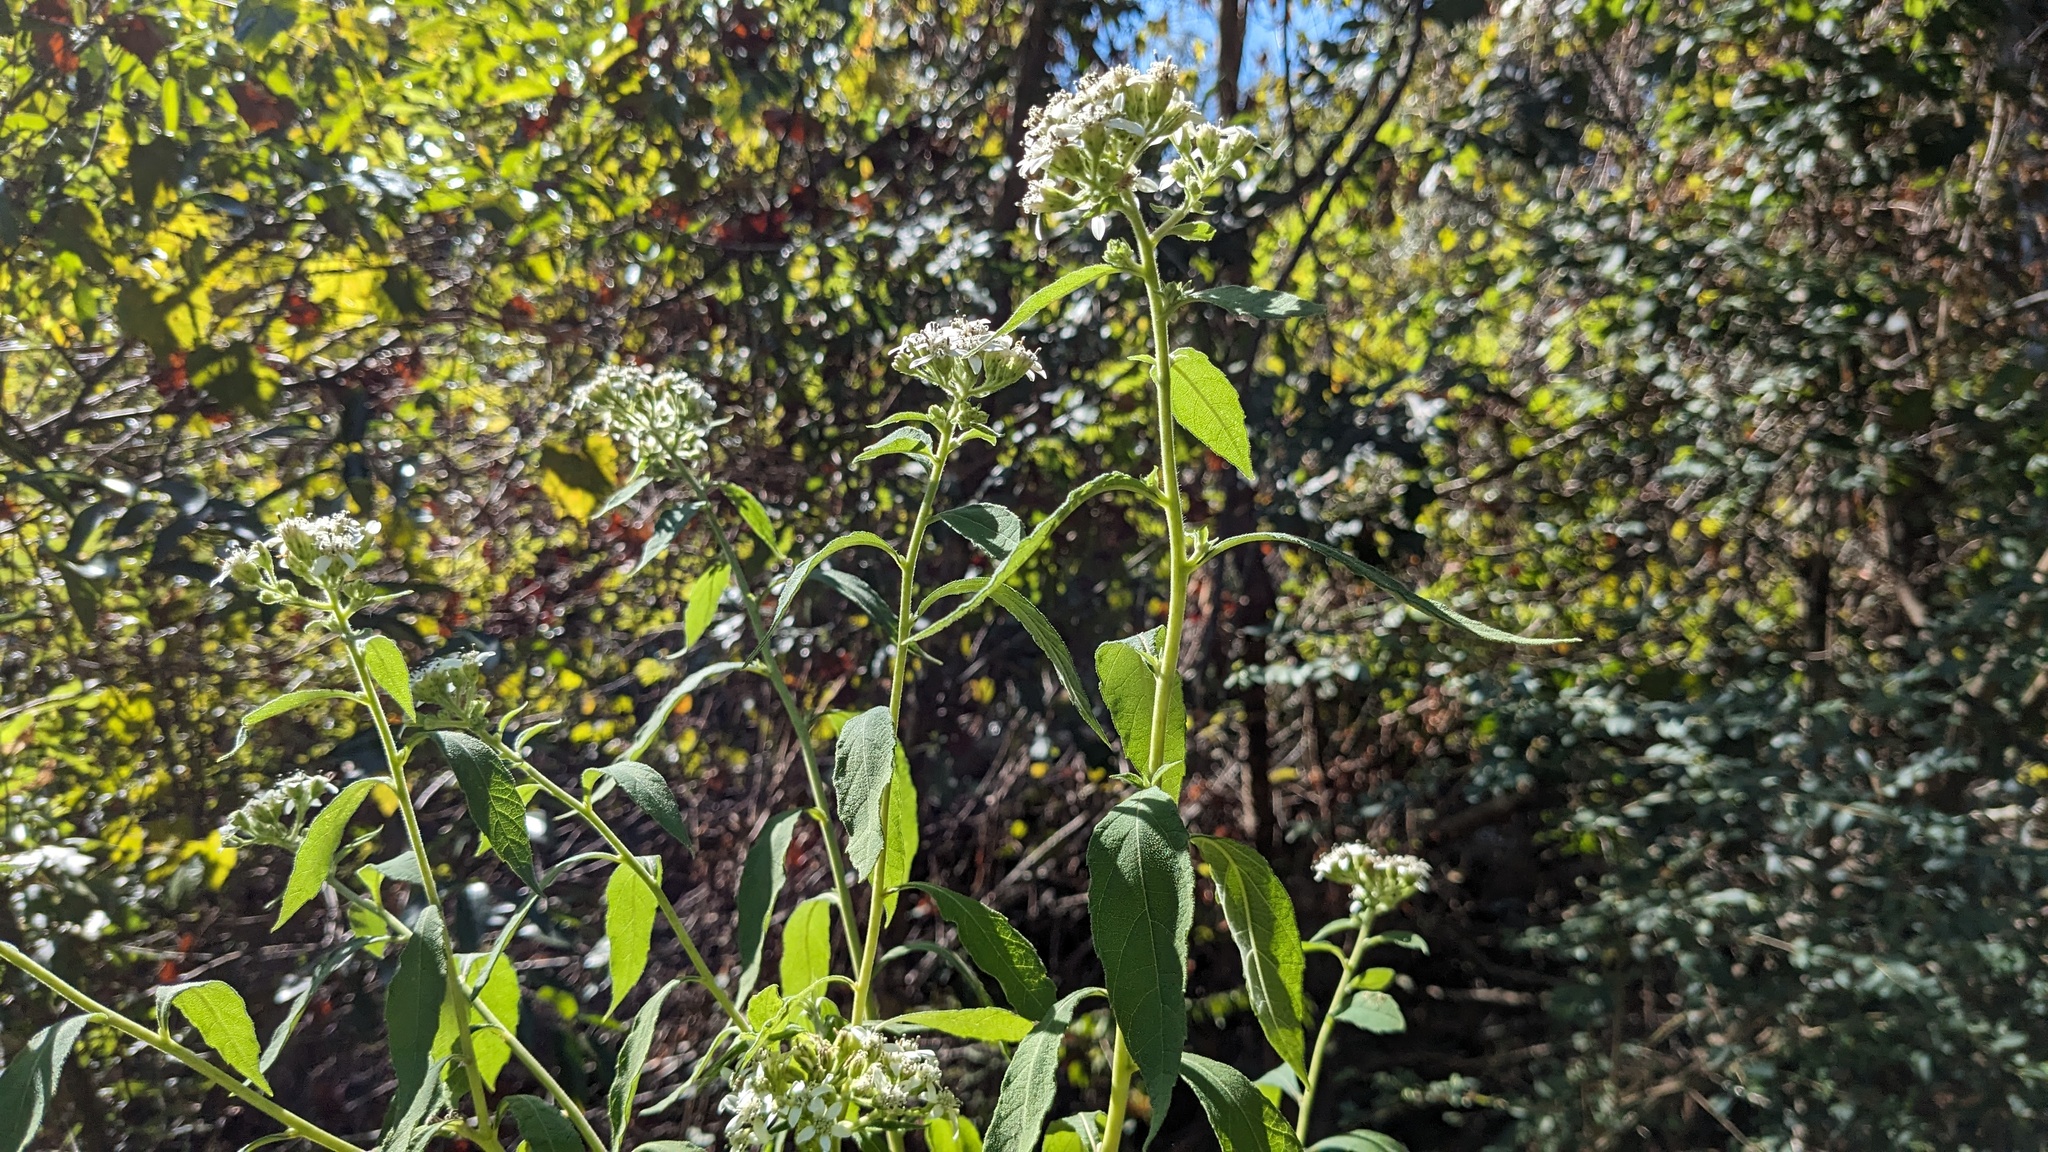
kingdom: Plantae
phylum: Tracheophyta
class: Magnoliopsida
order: Asterales
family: Asteraceae
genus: Verbesina
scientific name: Verbesina virginica
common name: Frostweed
